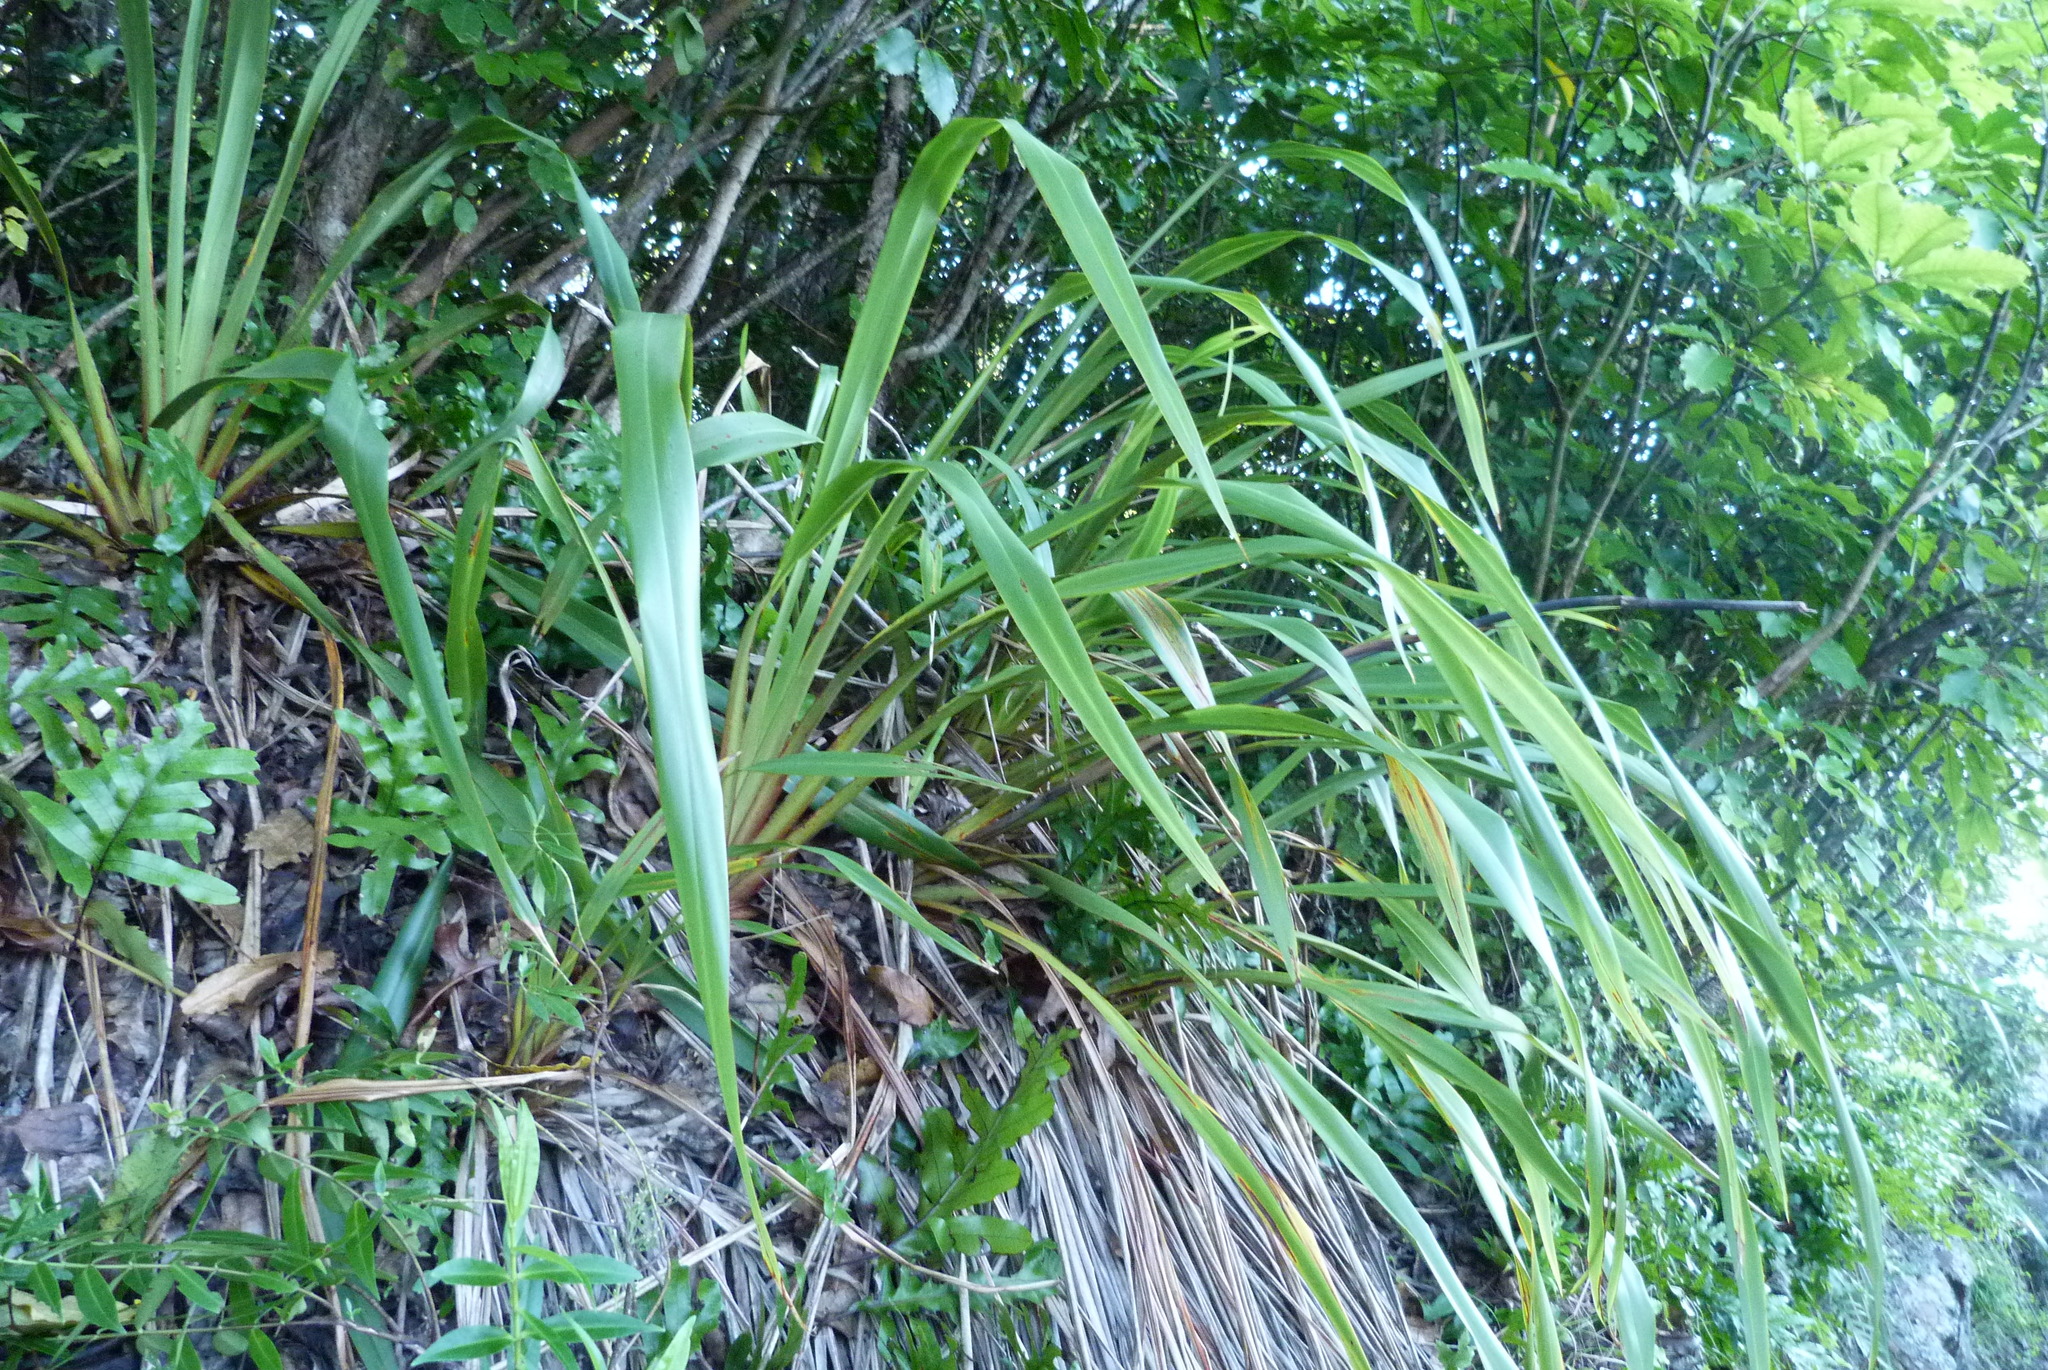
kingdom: Plantae
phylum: Tracheophyta
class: Liliopsida
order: Asparagales
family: Asphodelaceae
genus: Phormium
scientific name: Phormium colensoi
